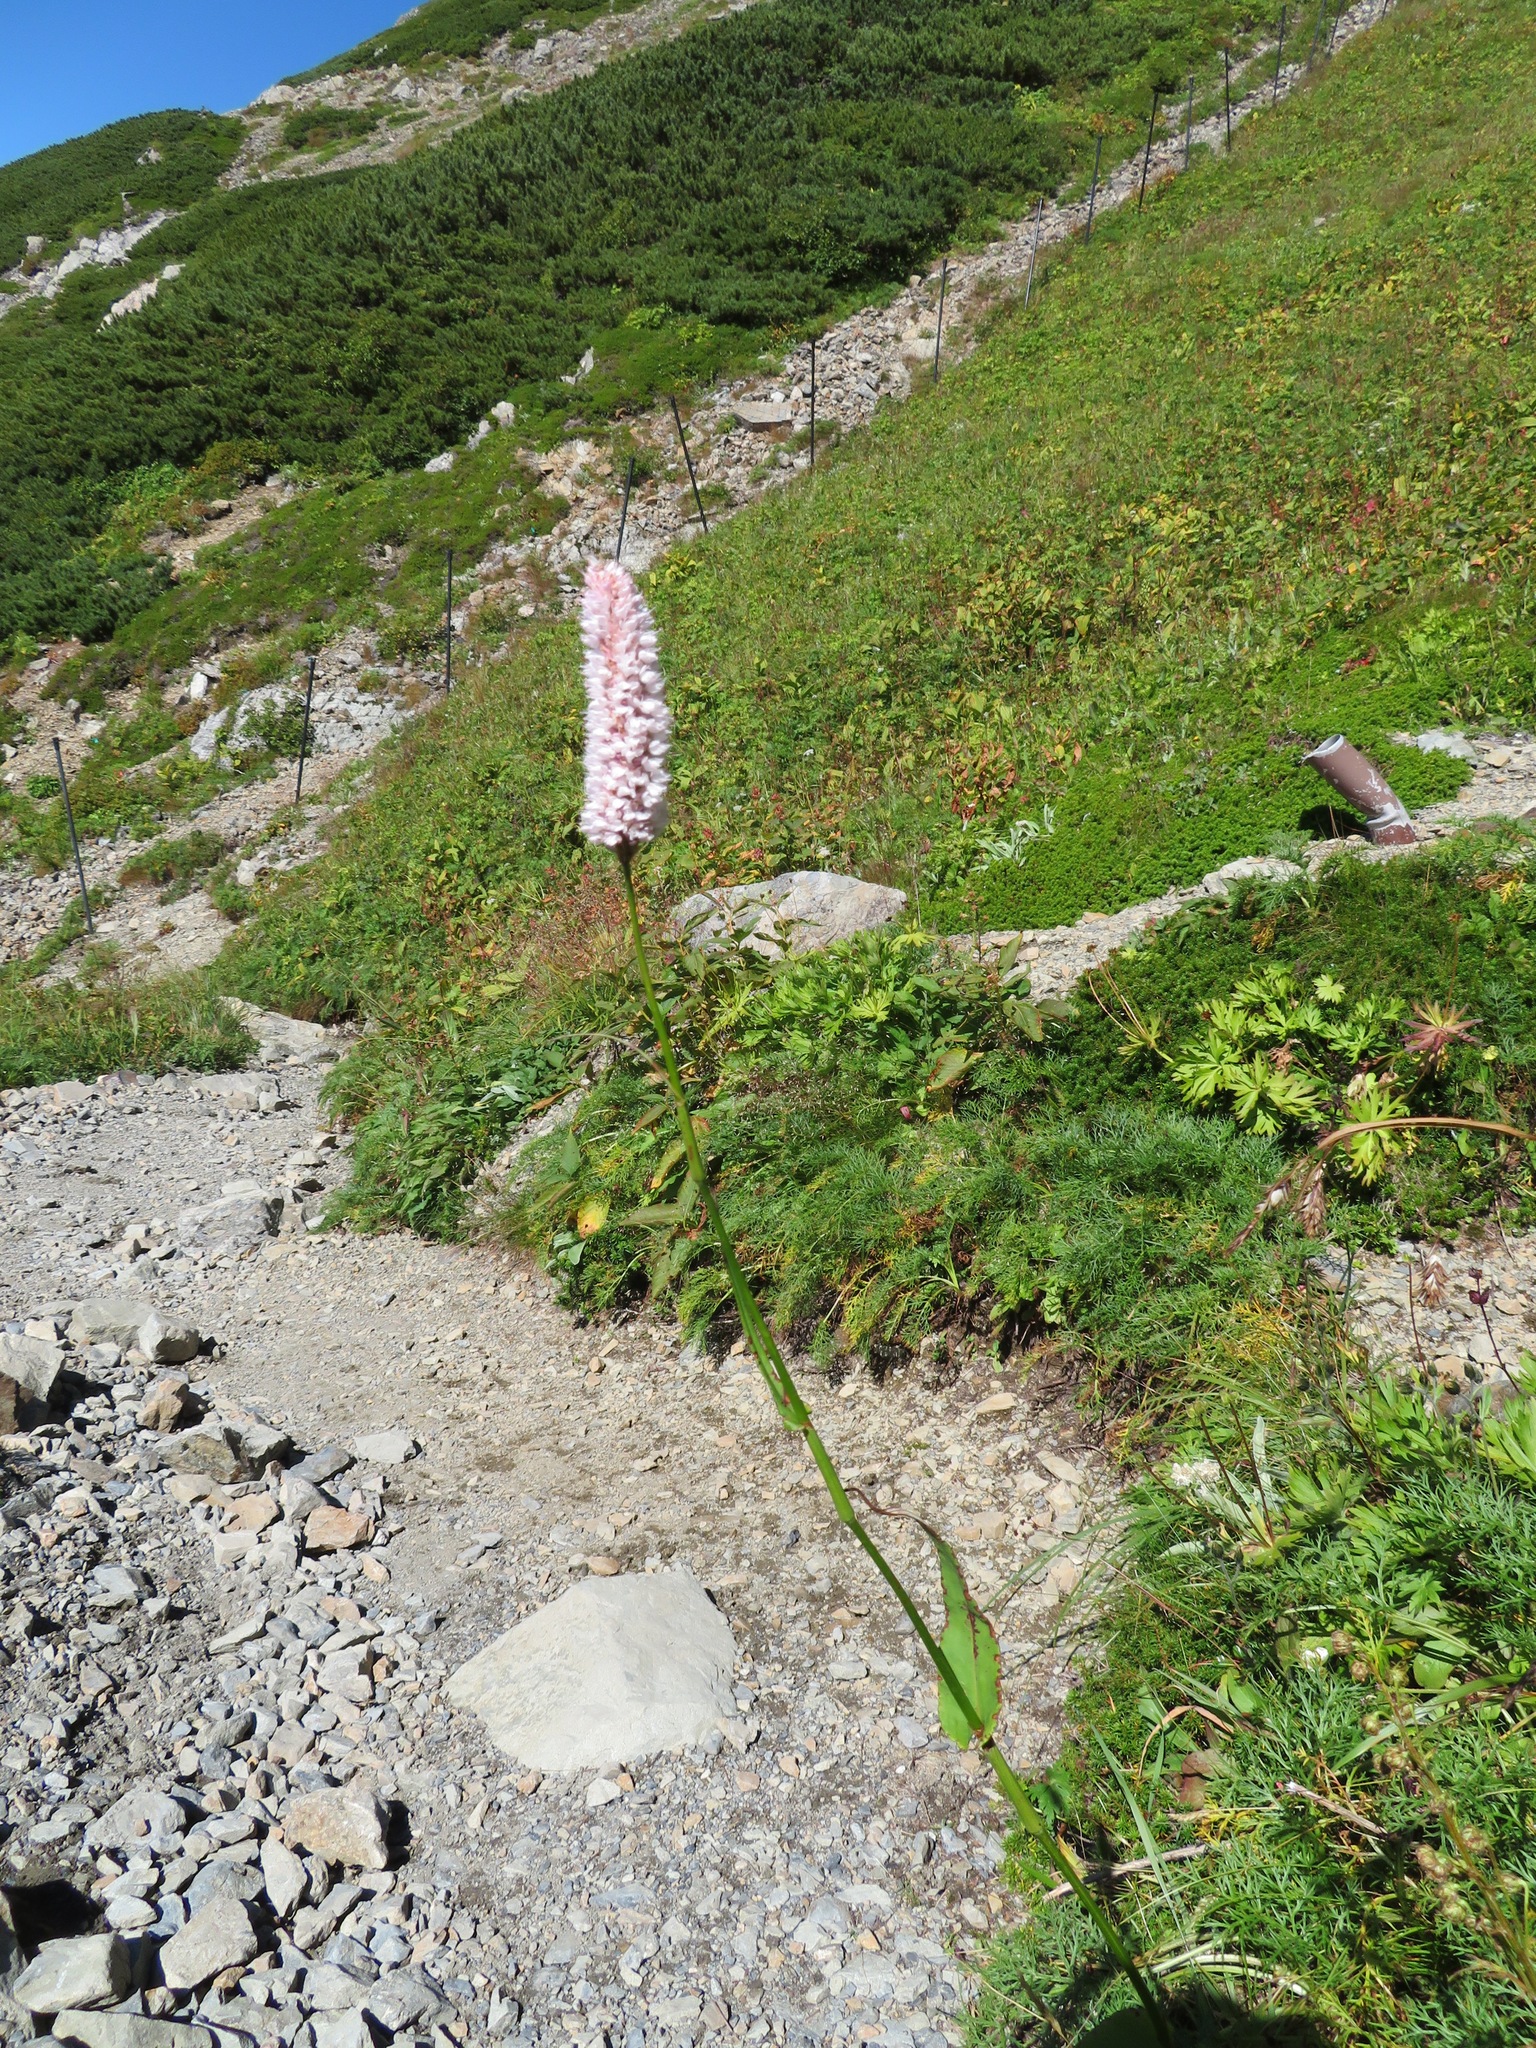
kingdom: Plantae
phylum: Tracheophyta
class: Magnoliopsida
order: Caryophyllales
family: Polygonaceae
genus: Bistorta
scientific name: Bistorta officinalis
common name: Common bistort
